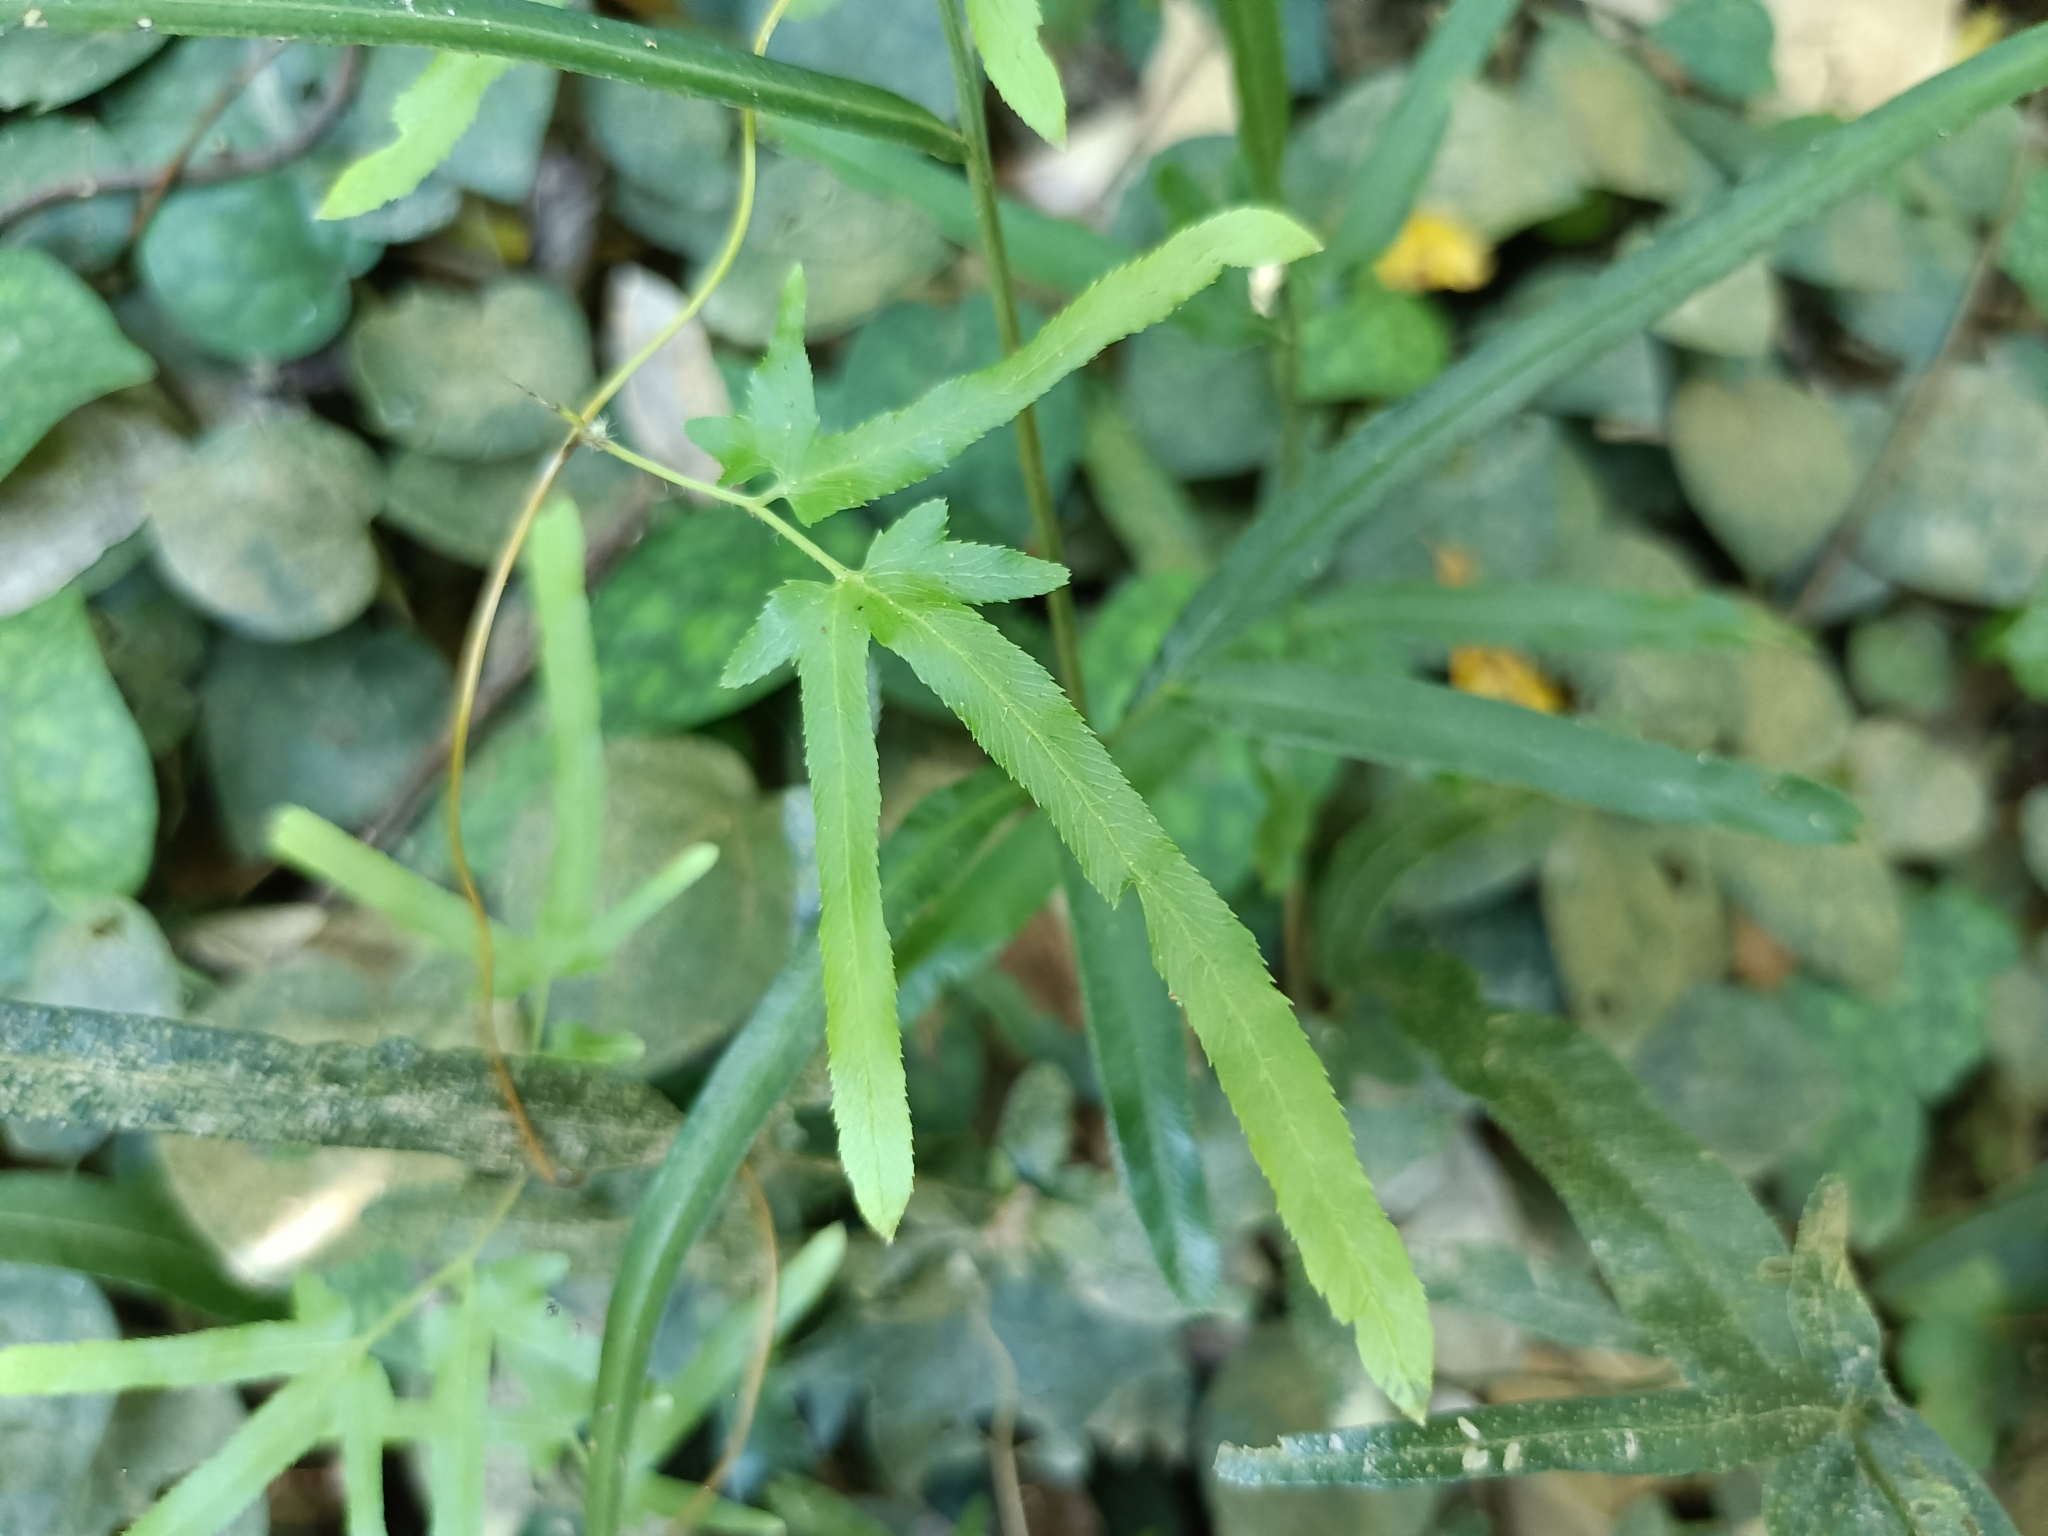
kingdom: Plantae
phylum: Tracheophyta
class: Polypodiopsida
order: Schizaeales
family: Lygodiaceae
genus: Lygodium
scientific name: Lygodium japonicum
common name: Japanese climbing fern
